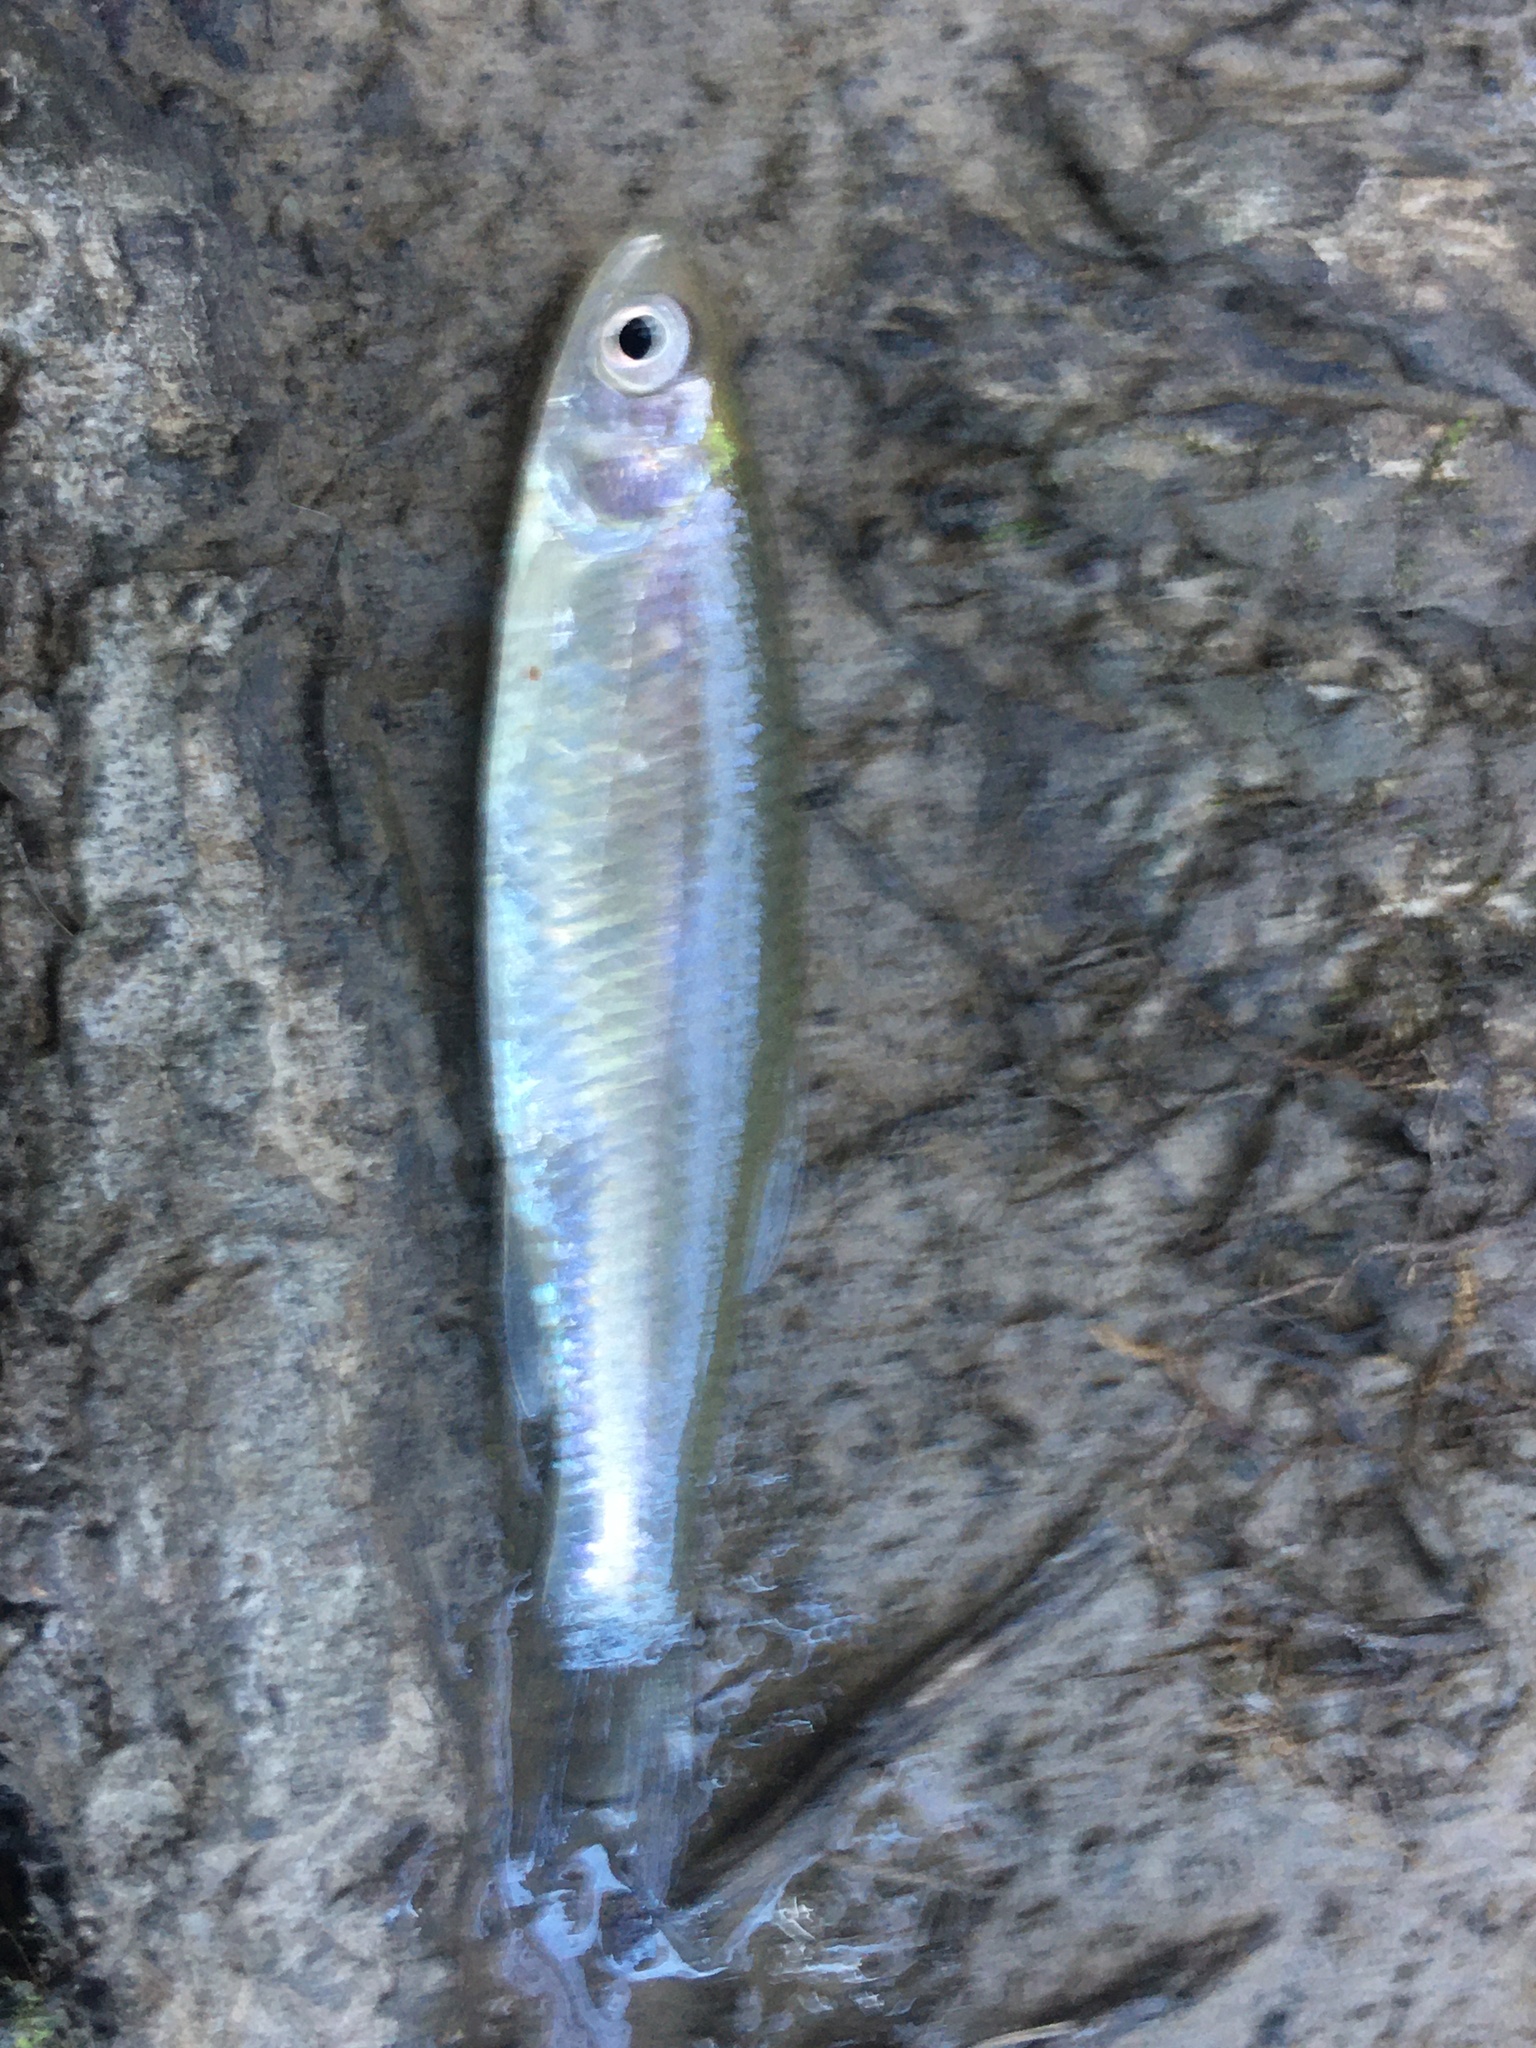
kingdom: Animalia
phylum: Chordata
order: Cypriniformes
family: Cyprinidae
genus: Cyprinella
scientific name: Cyprinella venusta
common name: Blacktail shiner
